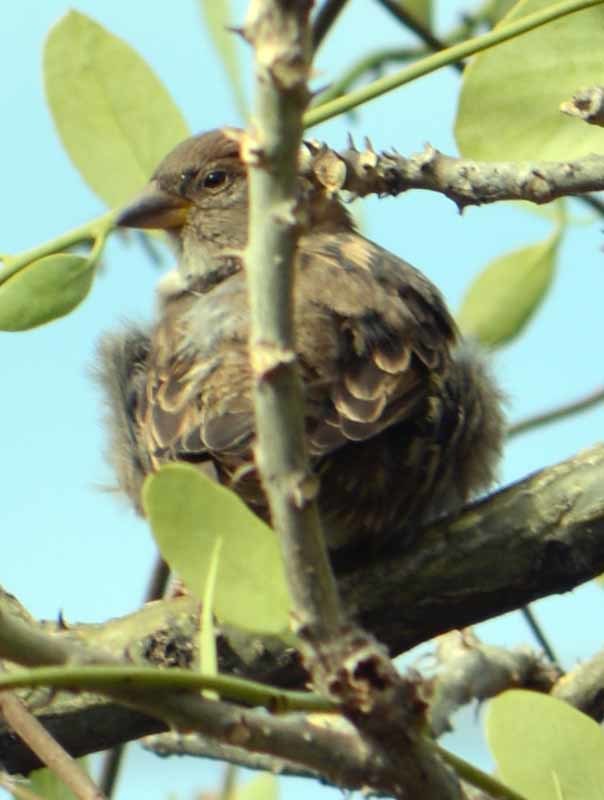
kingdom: Animalia
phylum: Chordata
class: Aves
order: Passeriformes
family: Passeridae
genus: Passer
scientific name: Passer domesticus
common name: House sparrow
